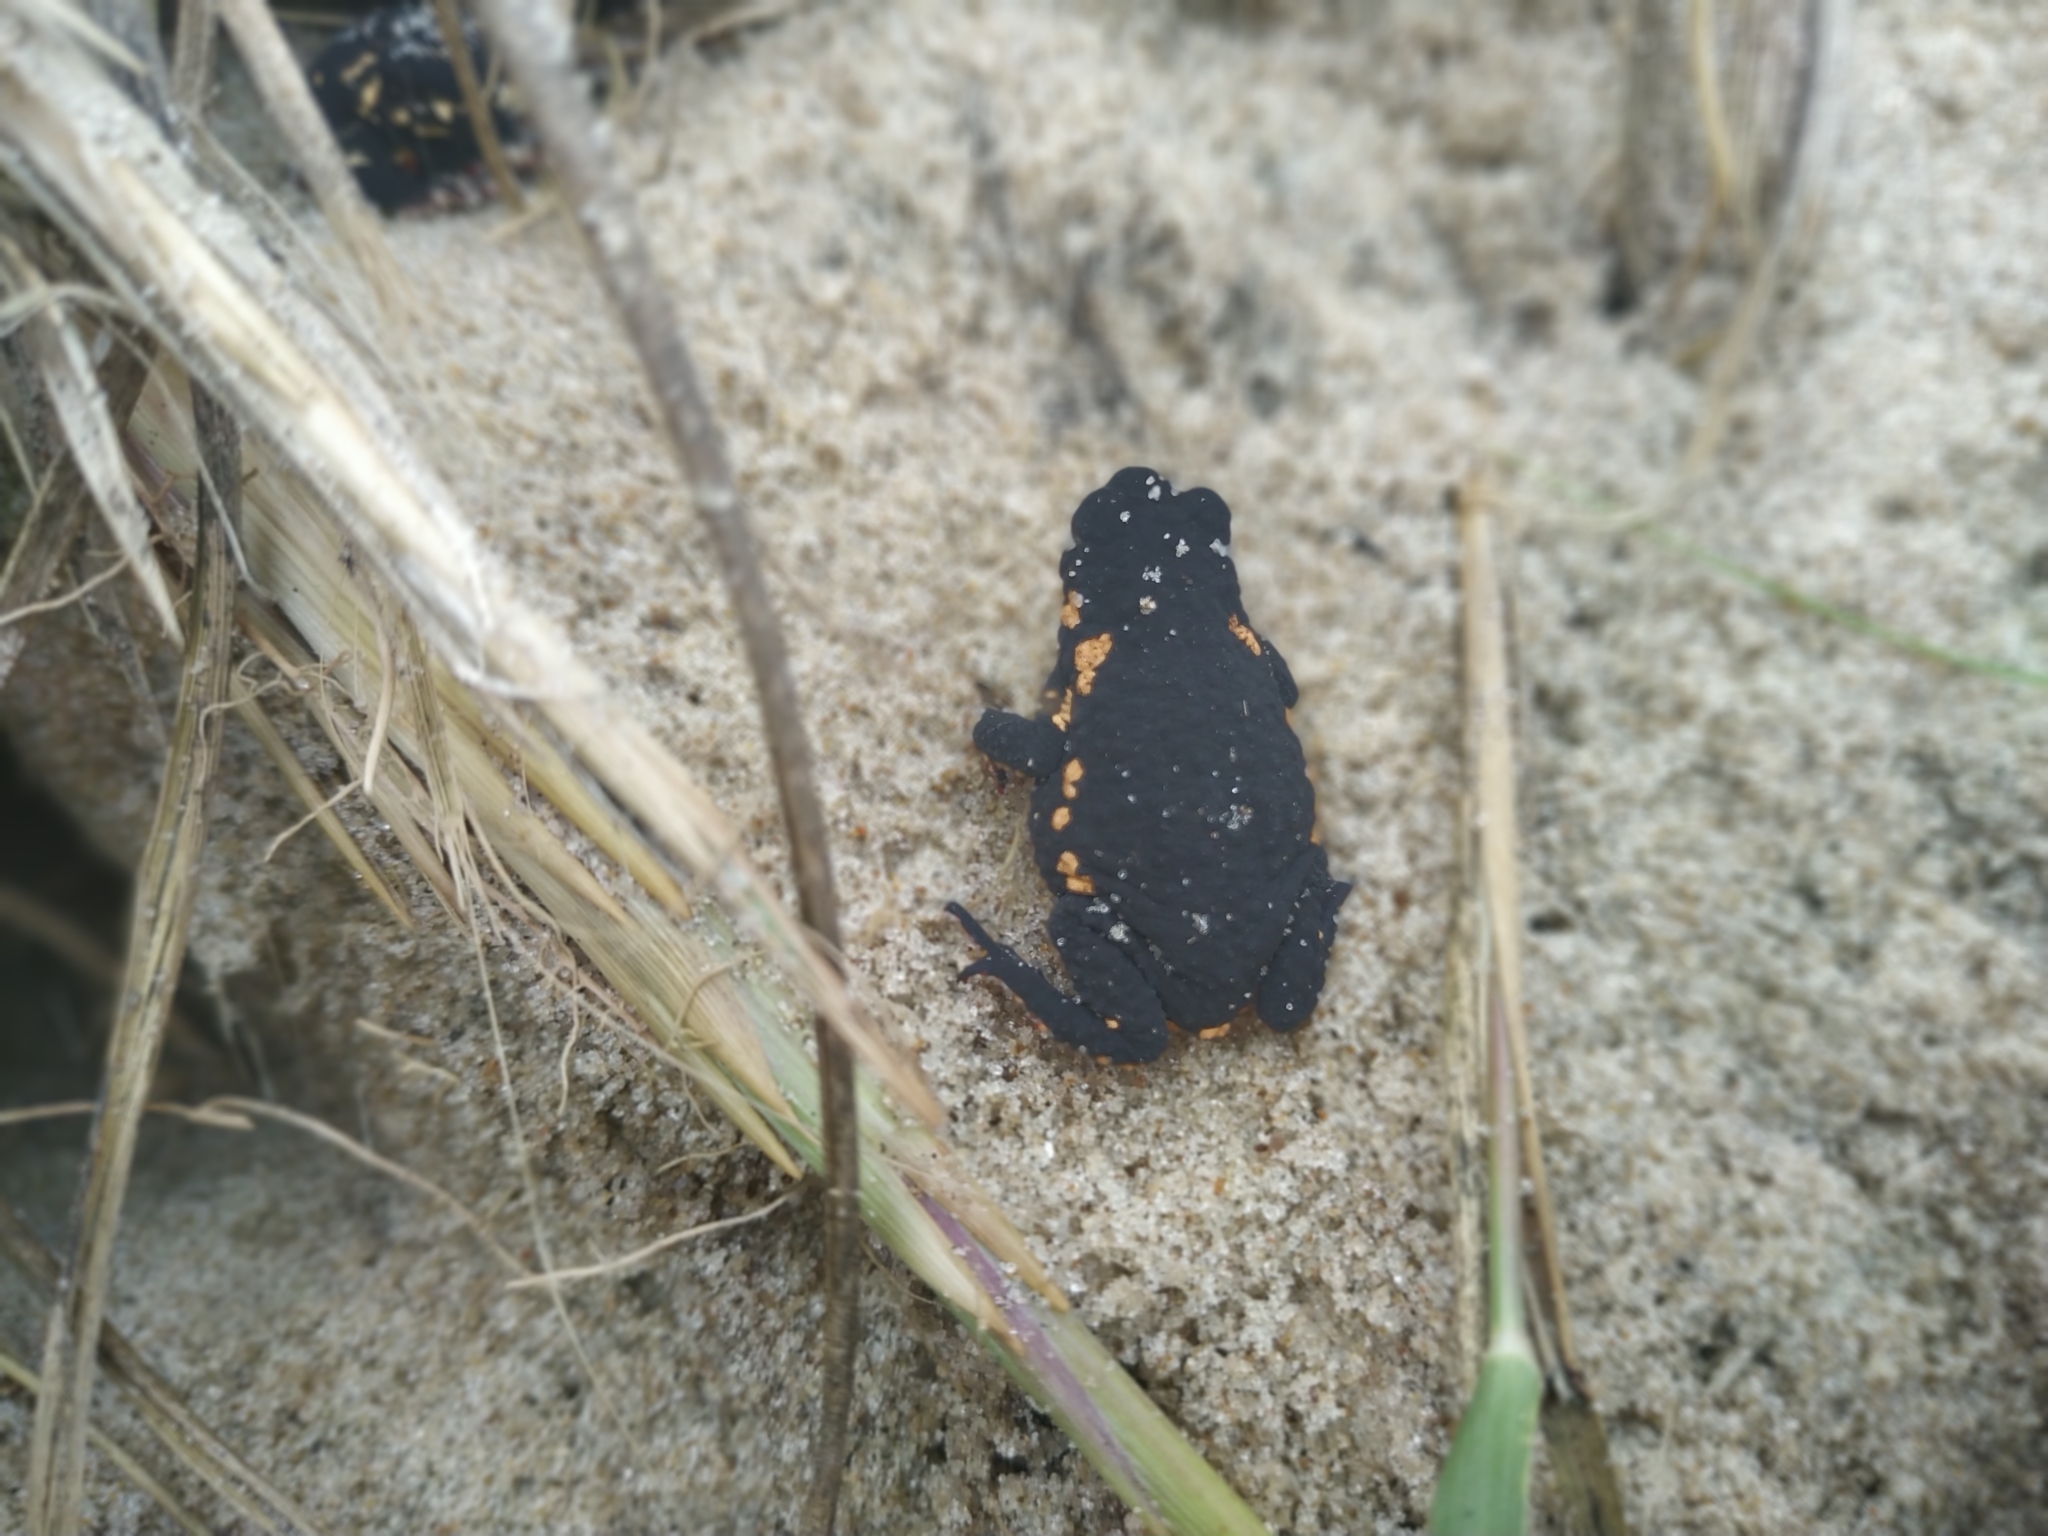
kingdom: Animalia
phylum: Chordata
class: Amphibia
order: Anura
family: Bufonidae
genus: Melanophryniscus
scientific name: Melanophryniscus montevidensis
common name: Montevideo redbelly toad
